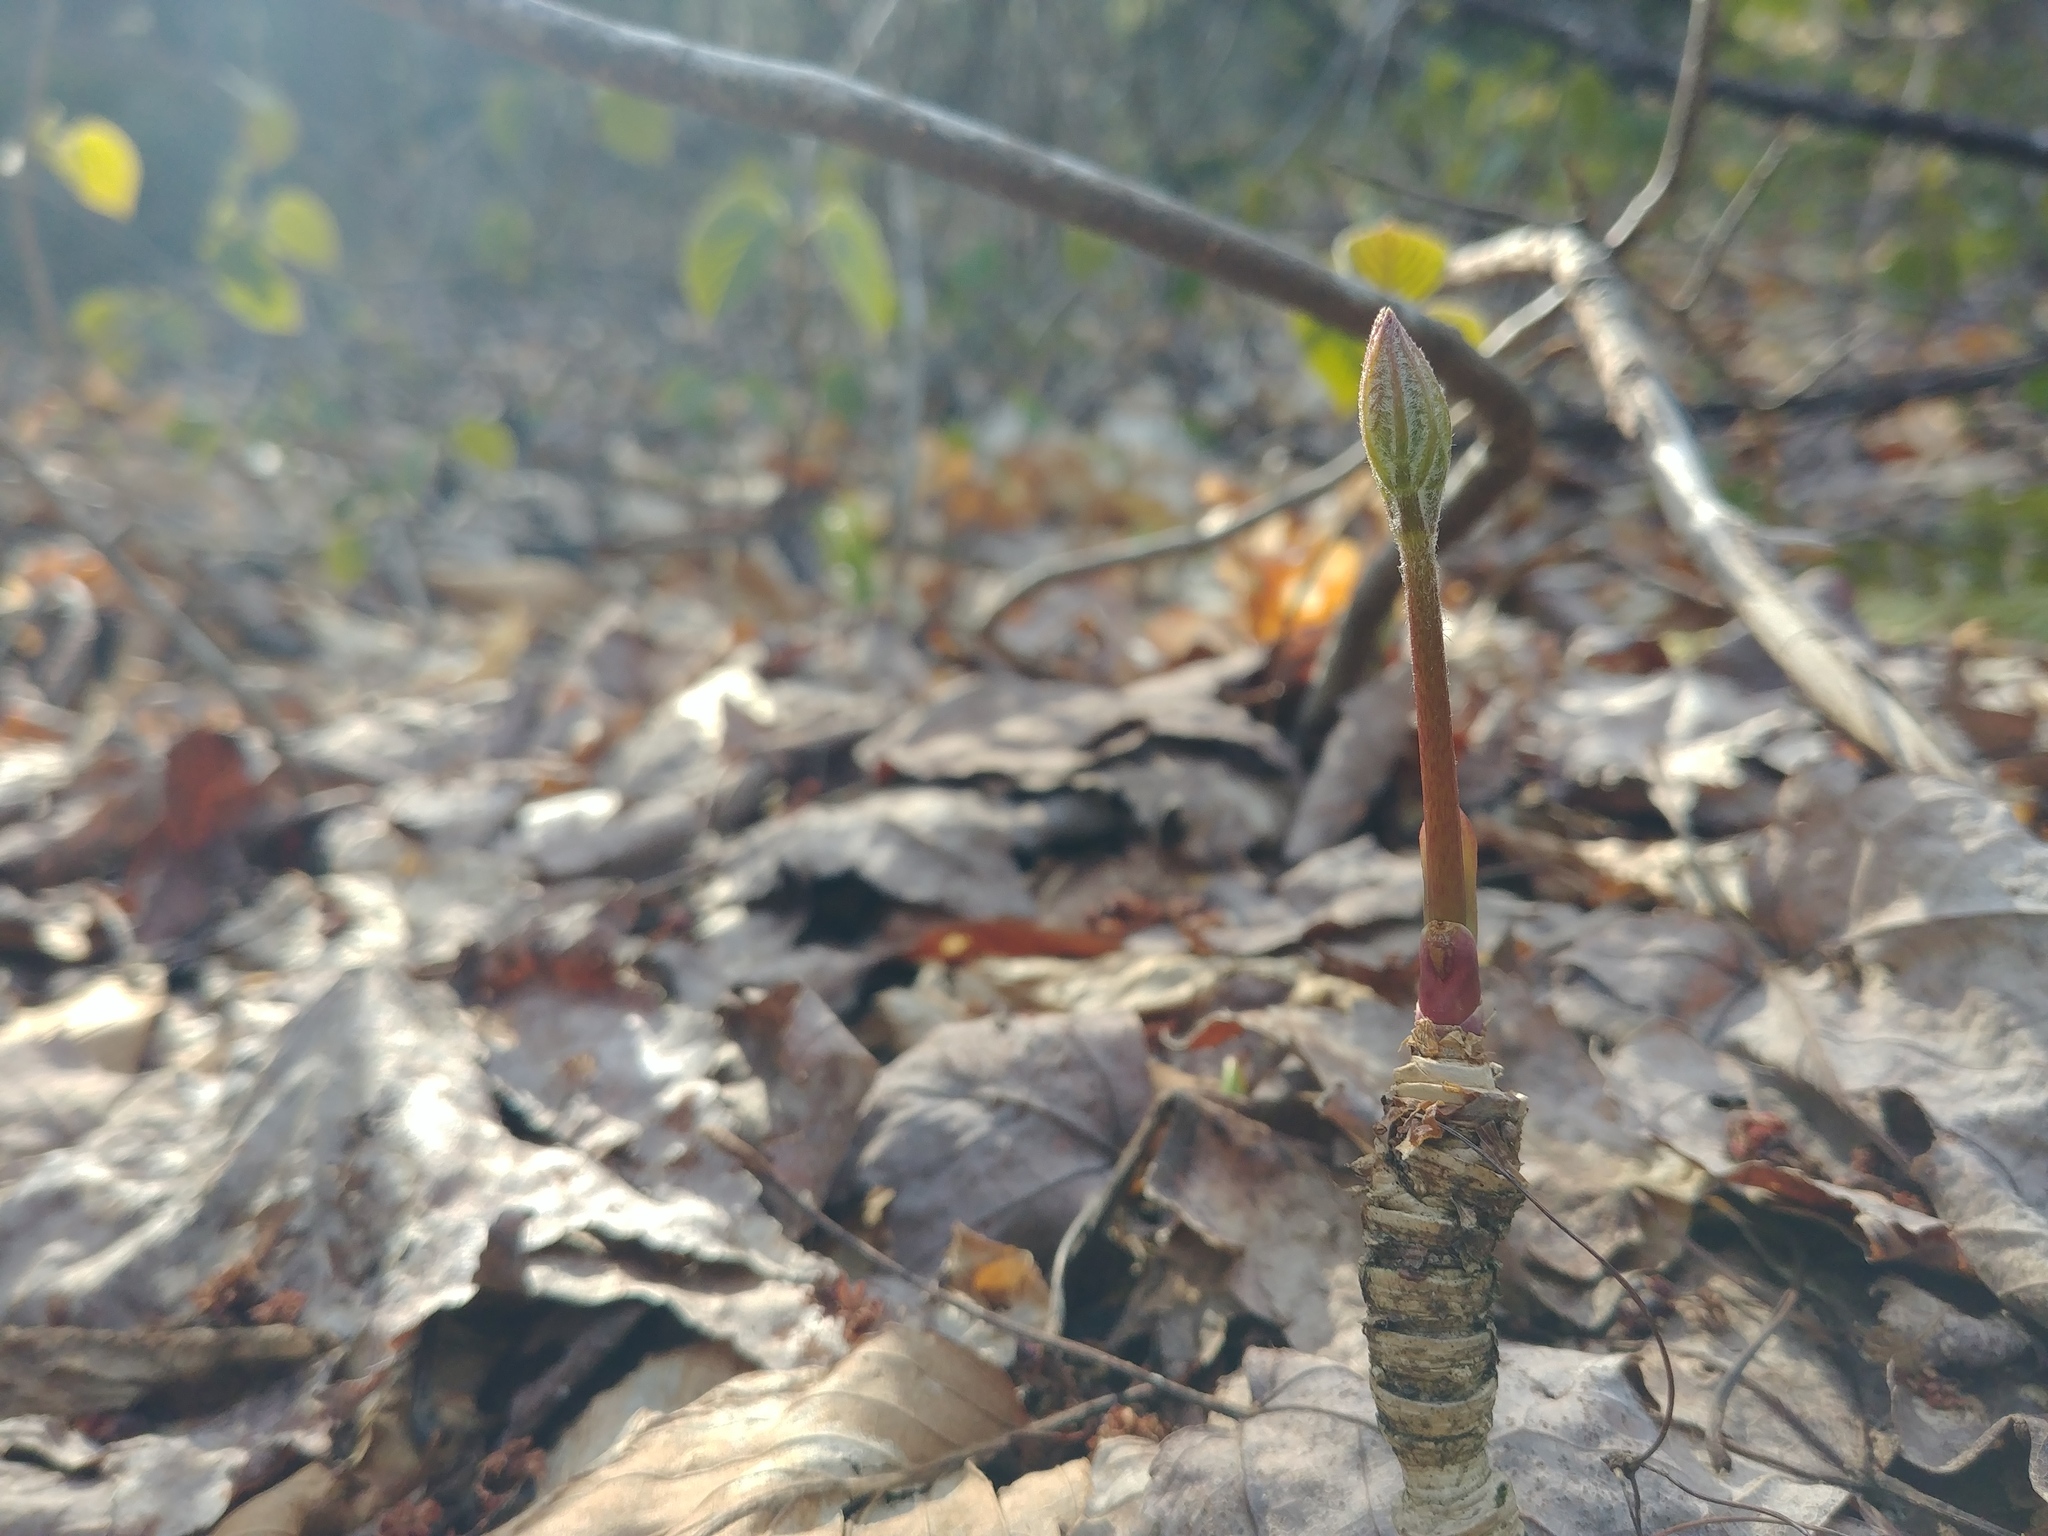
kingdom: Plantae
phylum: Tracheophyta
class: Magnoliopsida
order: Apiales
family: Araliaceae
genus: Aralia
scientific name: Aralia nudicaulis
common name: Wild sarsaparilla
